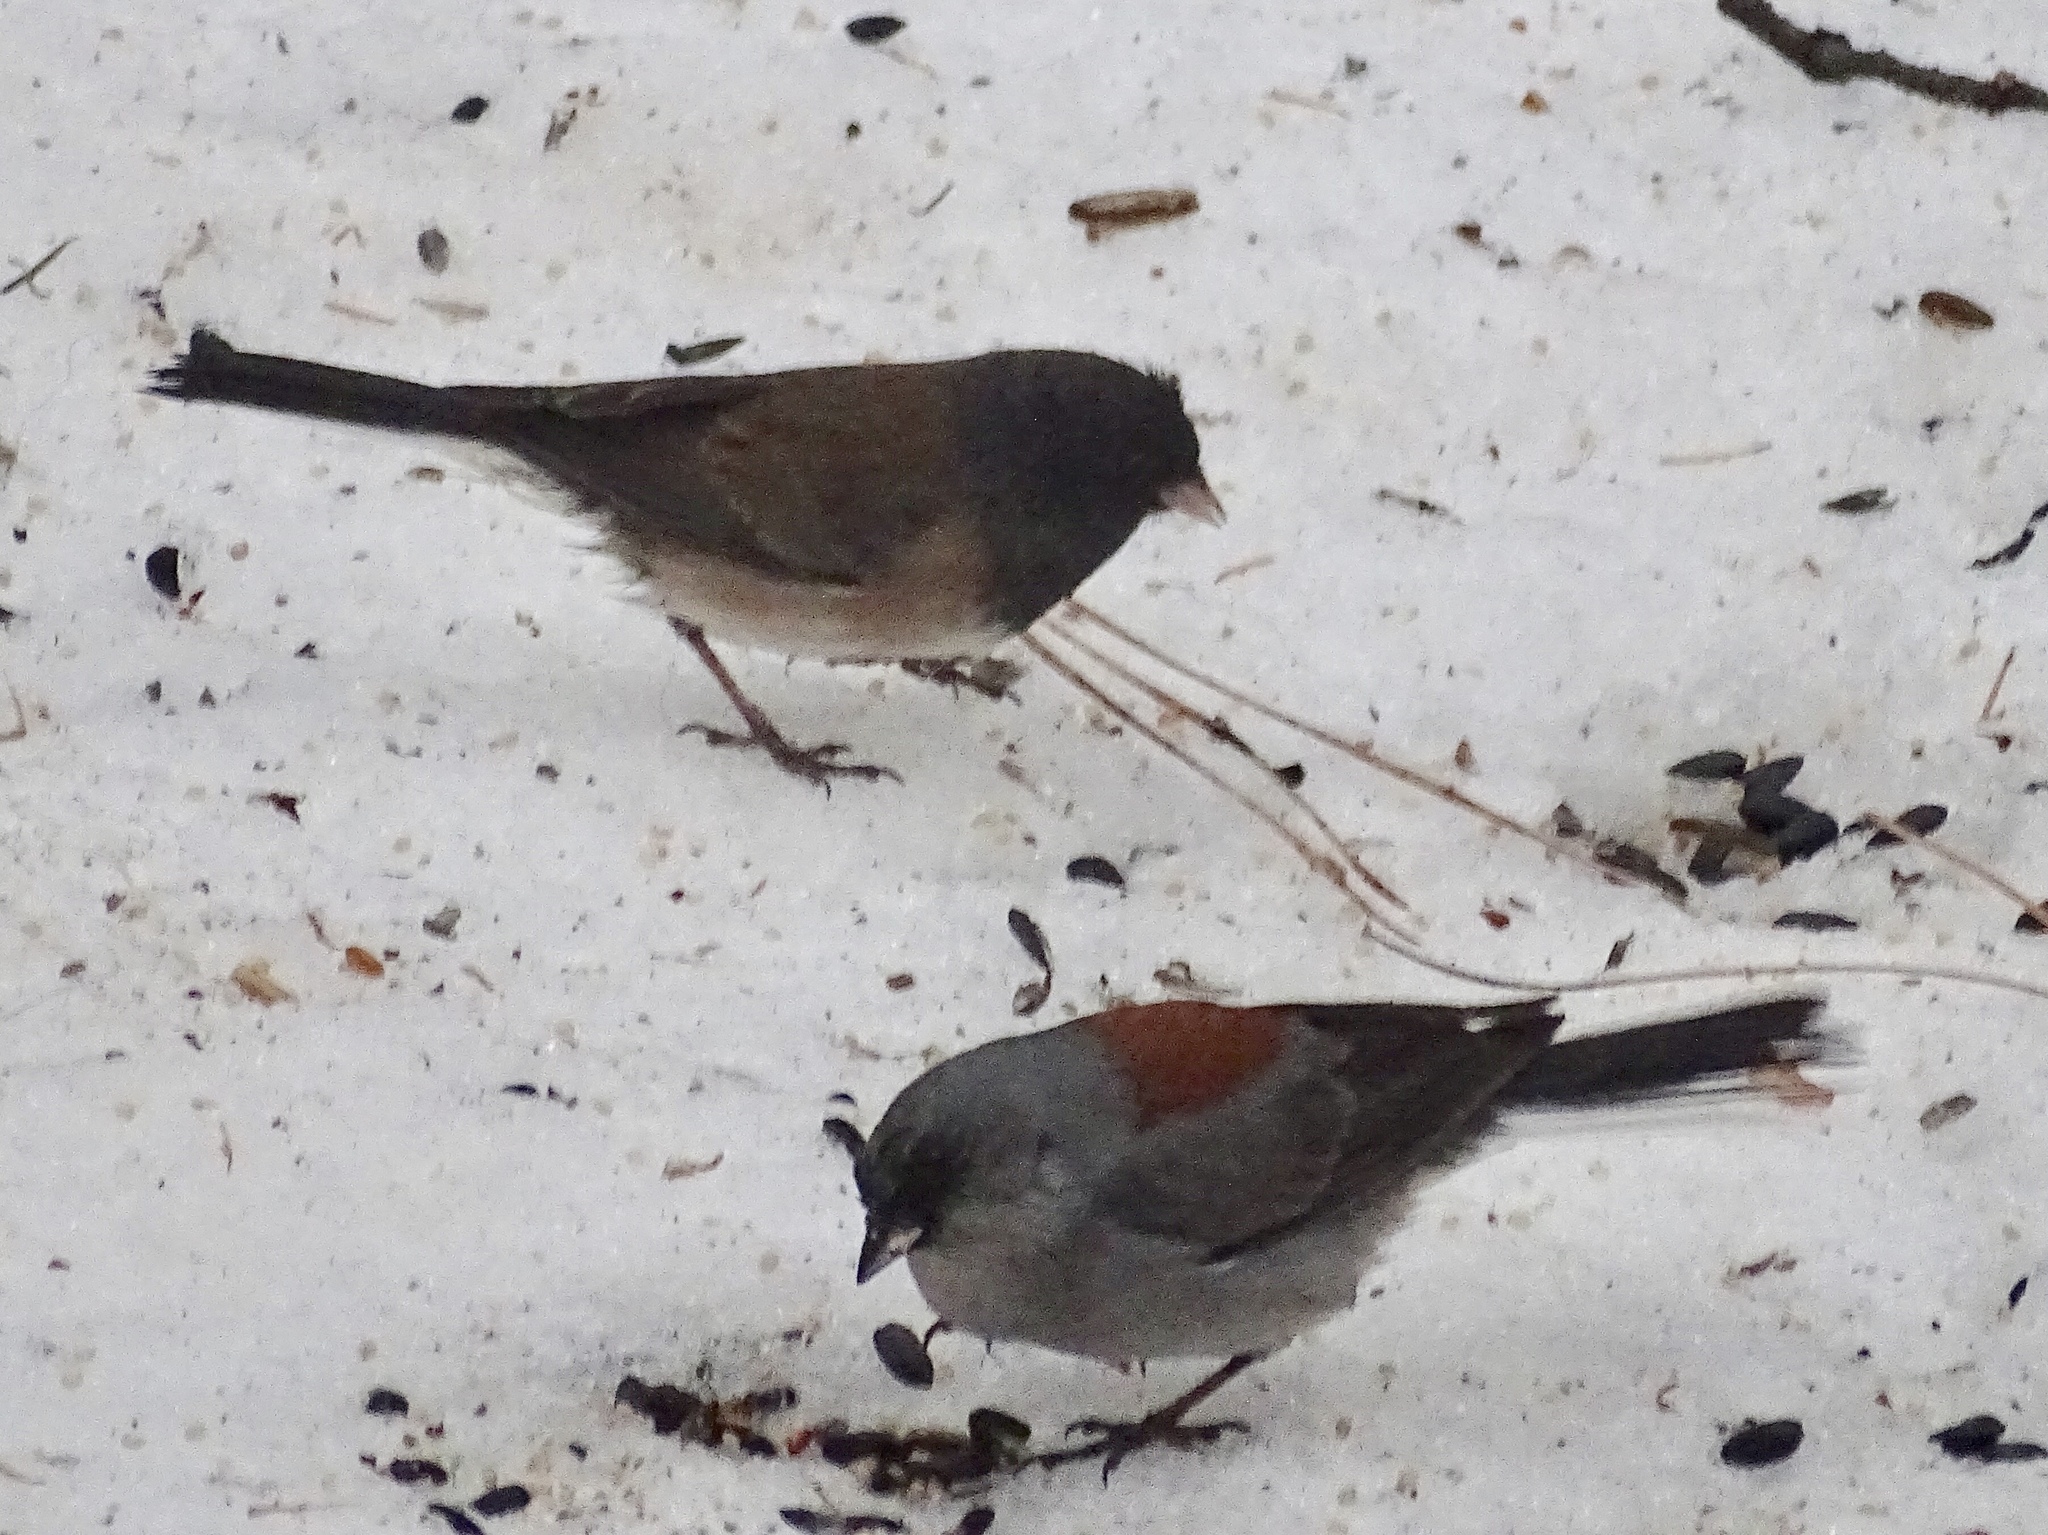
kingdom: Animalia
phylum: Chordata
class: Aves
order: Passeriformes
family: Passerellidae
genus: Junco
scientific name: Junco hyemalis
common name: Dark-eyed junco
